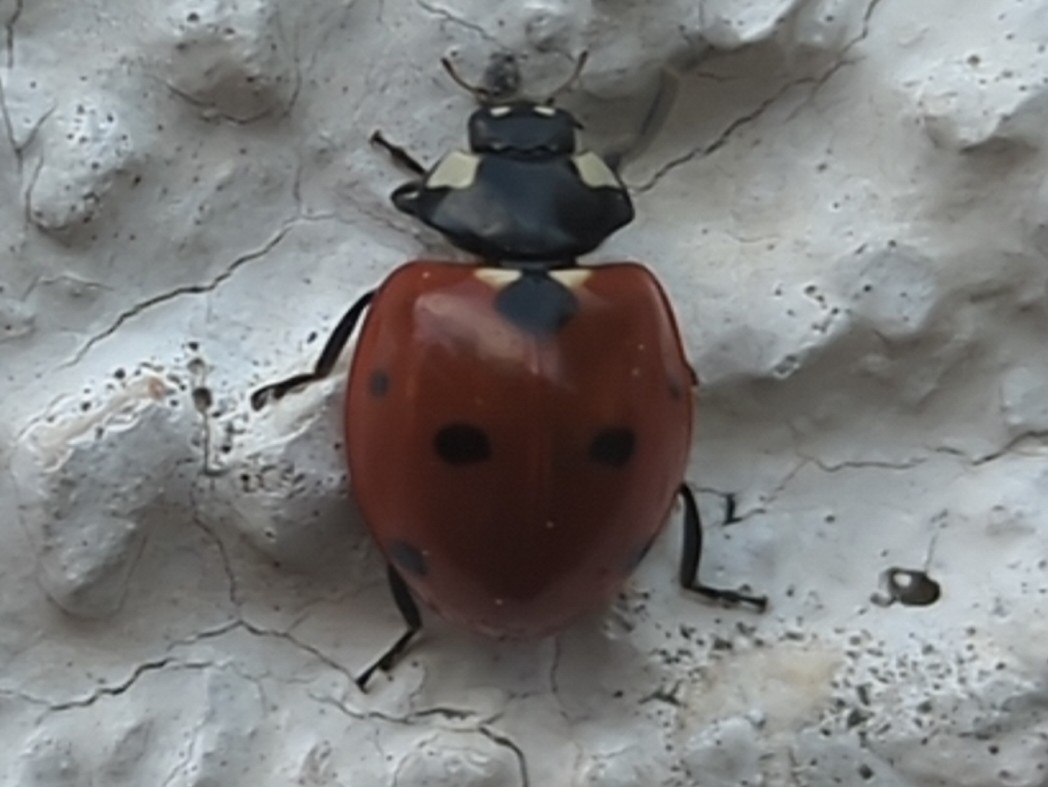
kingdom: Animalia
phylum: Arthropoda
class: Insecta
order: Coleoptera
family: Coccinellidae
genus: Coccinella
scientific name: Coccinella septempunctata
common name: Sevenspotted lady beetle
